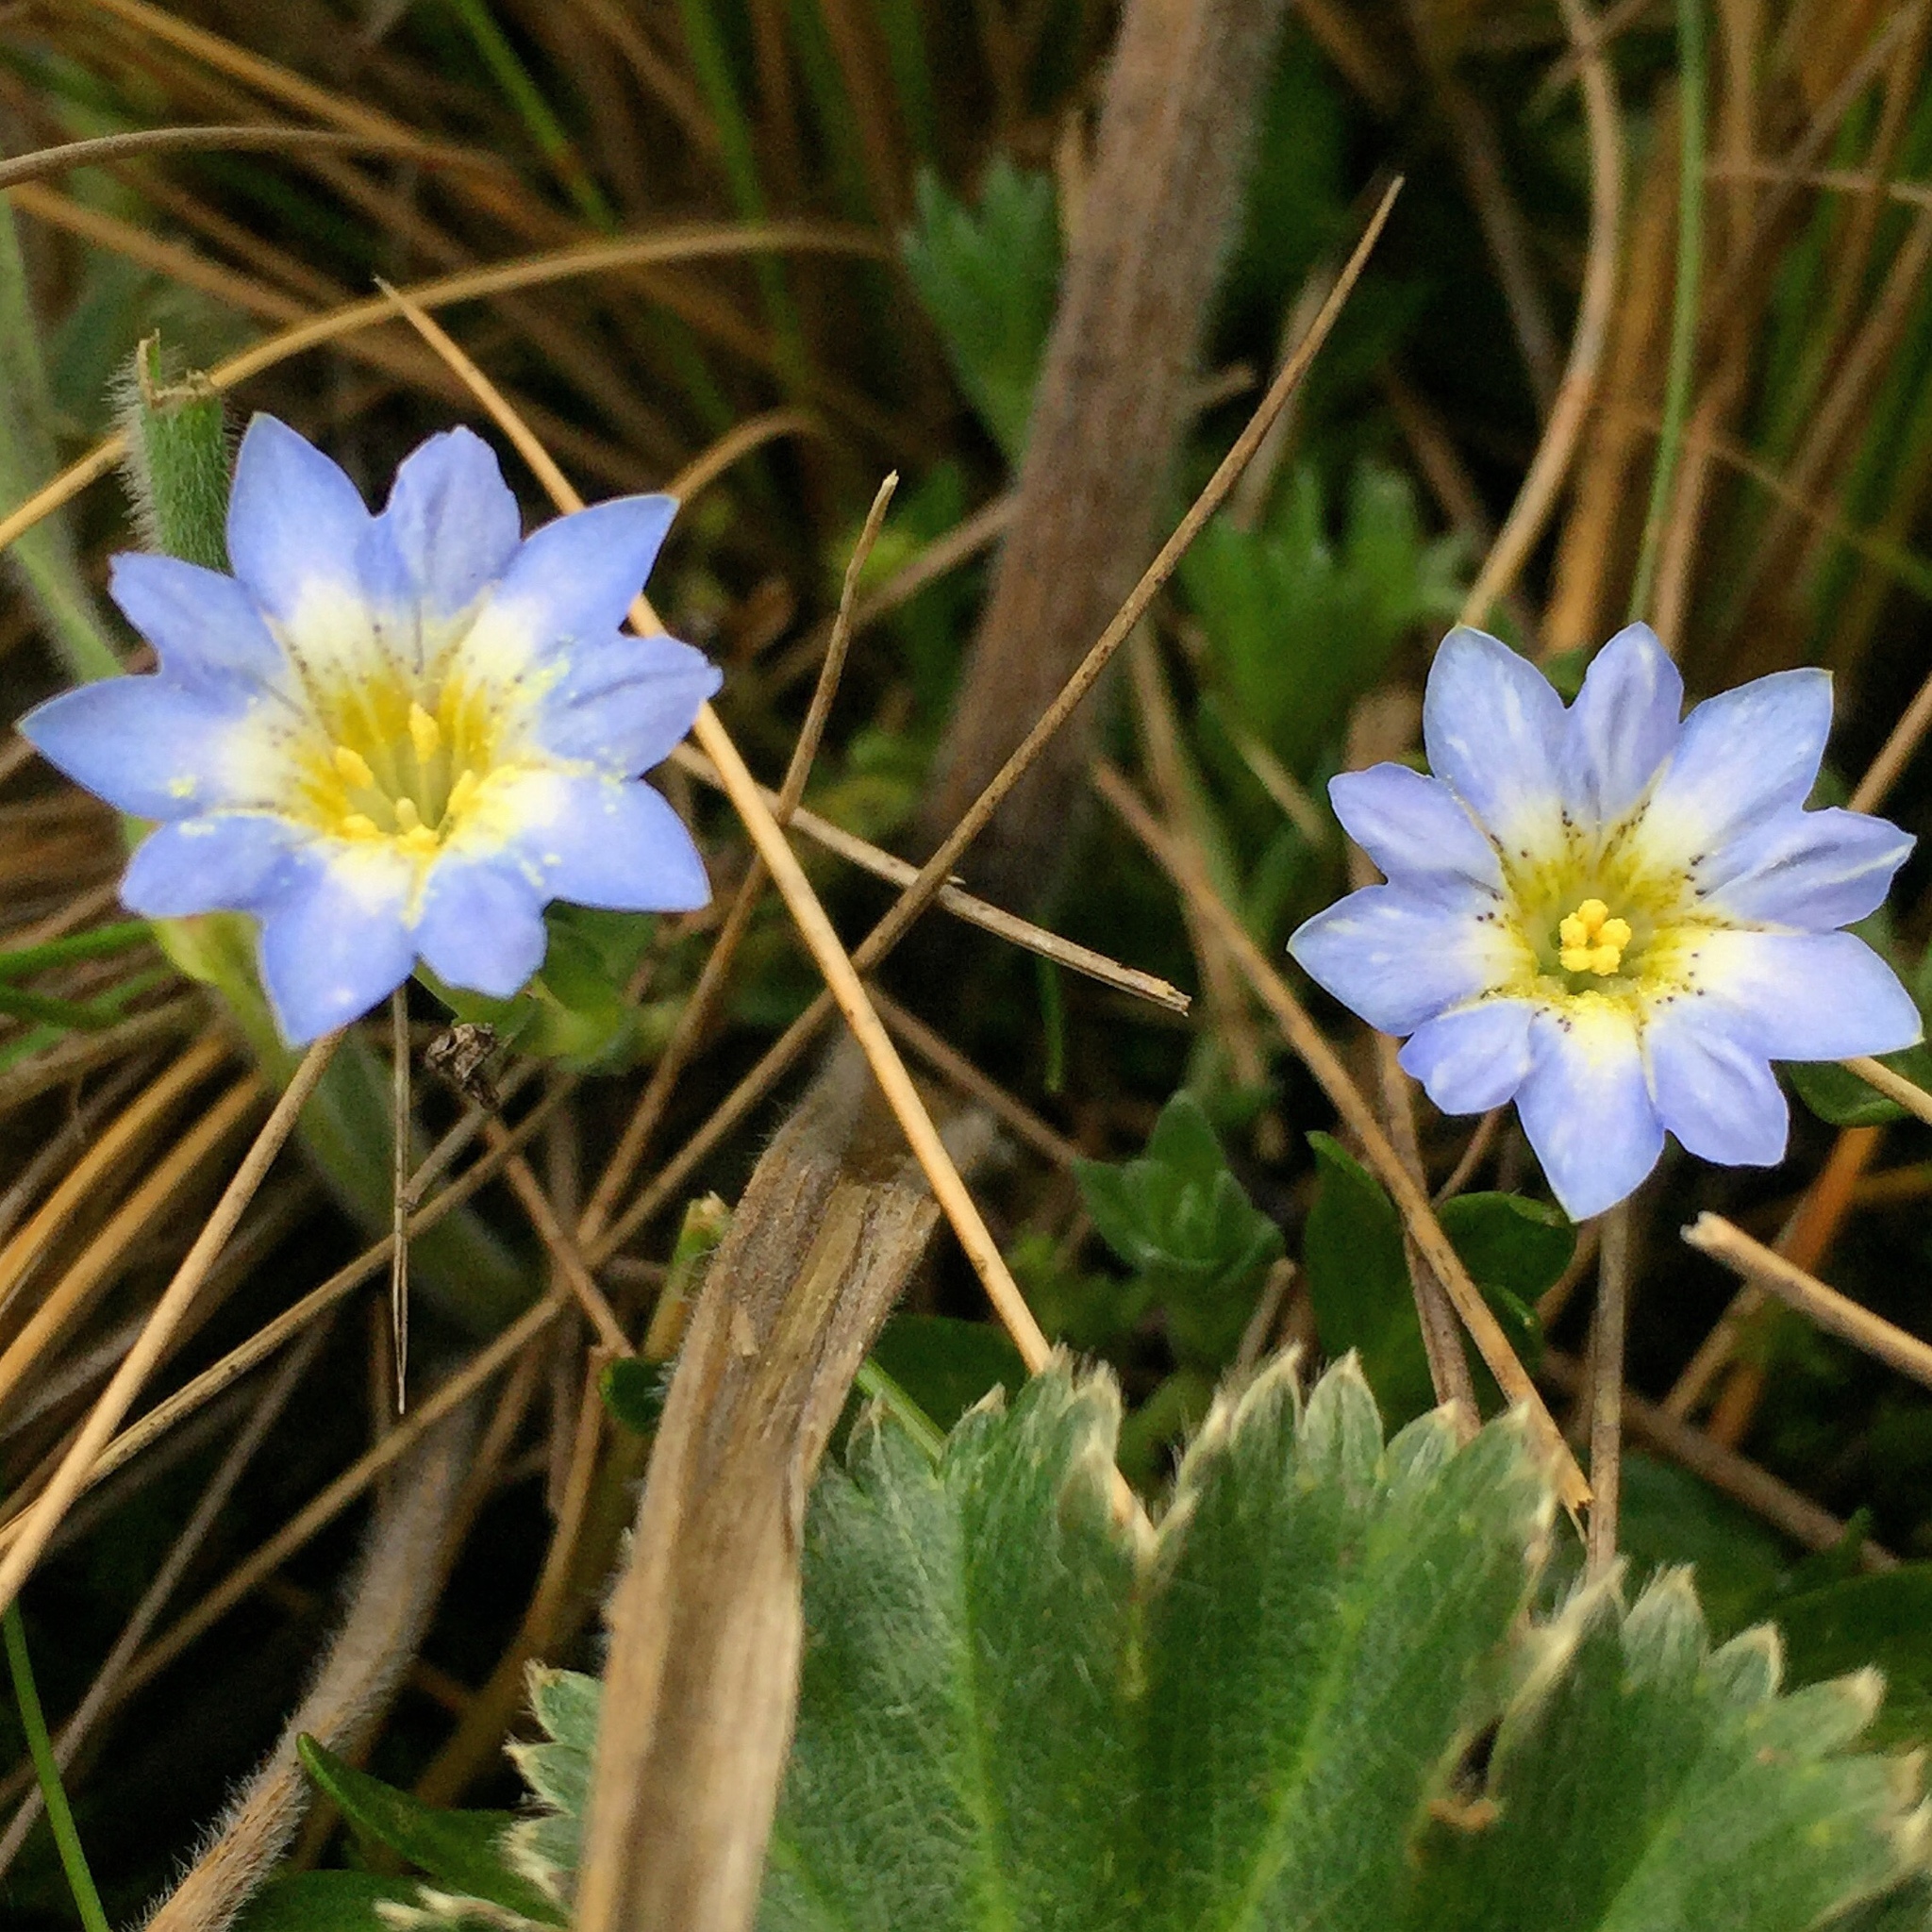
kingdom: Plantae
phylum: Tracheophyta
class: Magnoliopsida
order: Gentianales
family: Gentianaceae
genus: Gentiana
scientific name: Gentiana sedifolia
